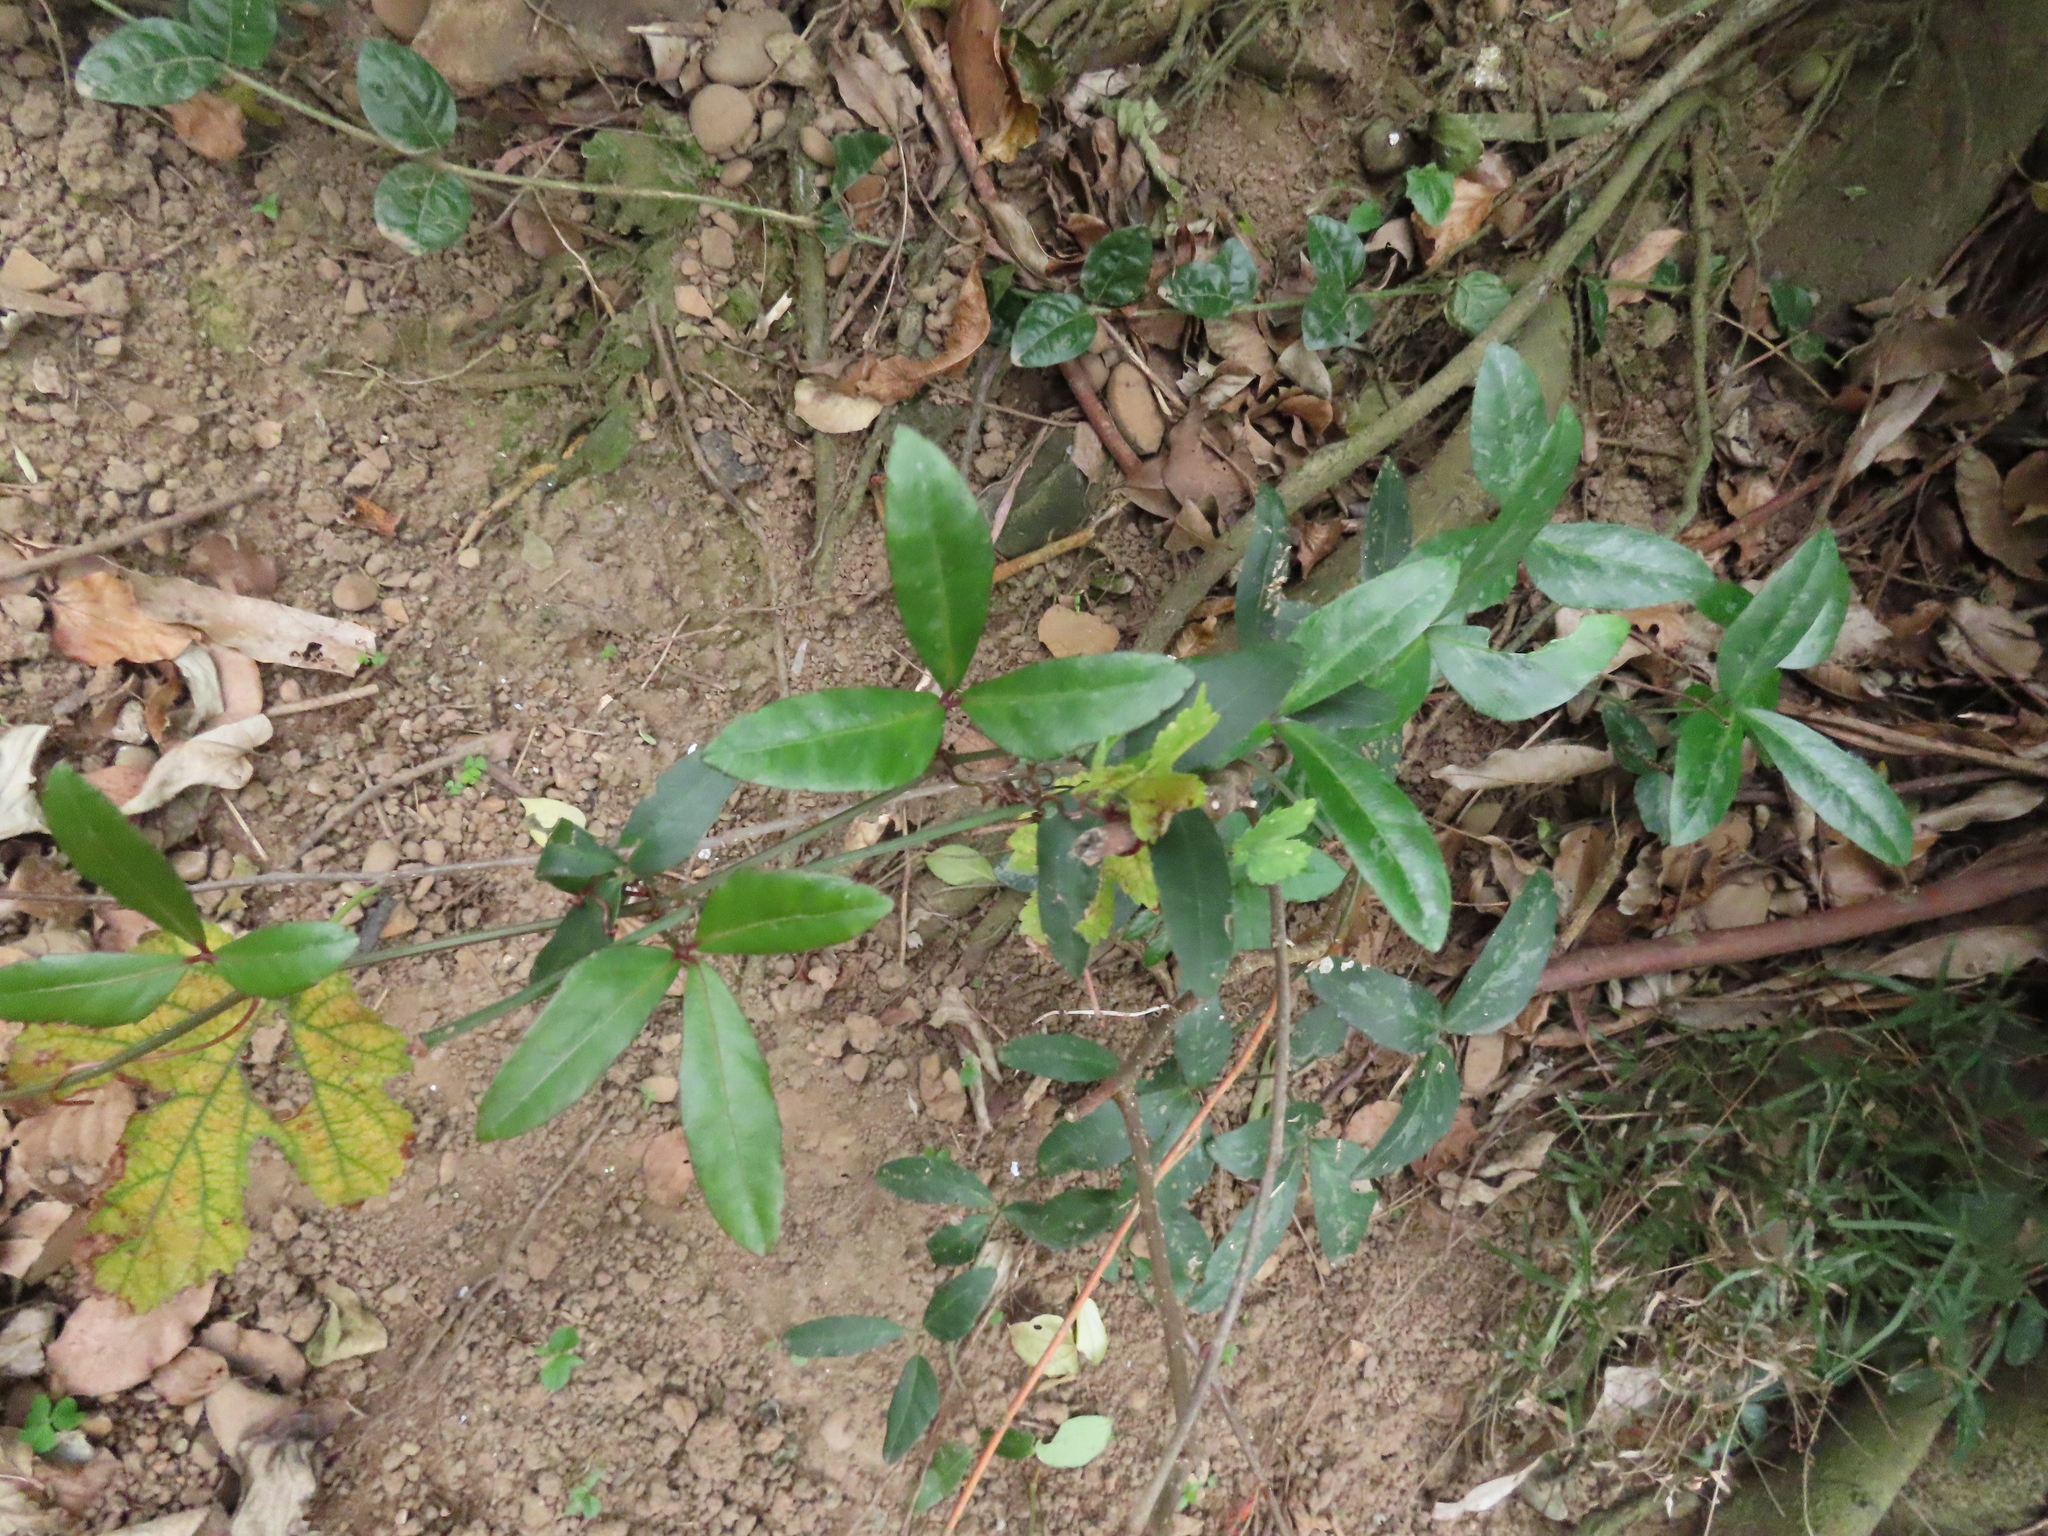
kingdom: Plantae
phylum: Tracheophyta
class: Magnoliopsida
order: Vitales
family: Vitaceae
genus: Tetrastigma
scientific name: Tetrastigma formosanum
